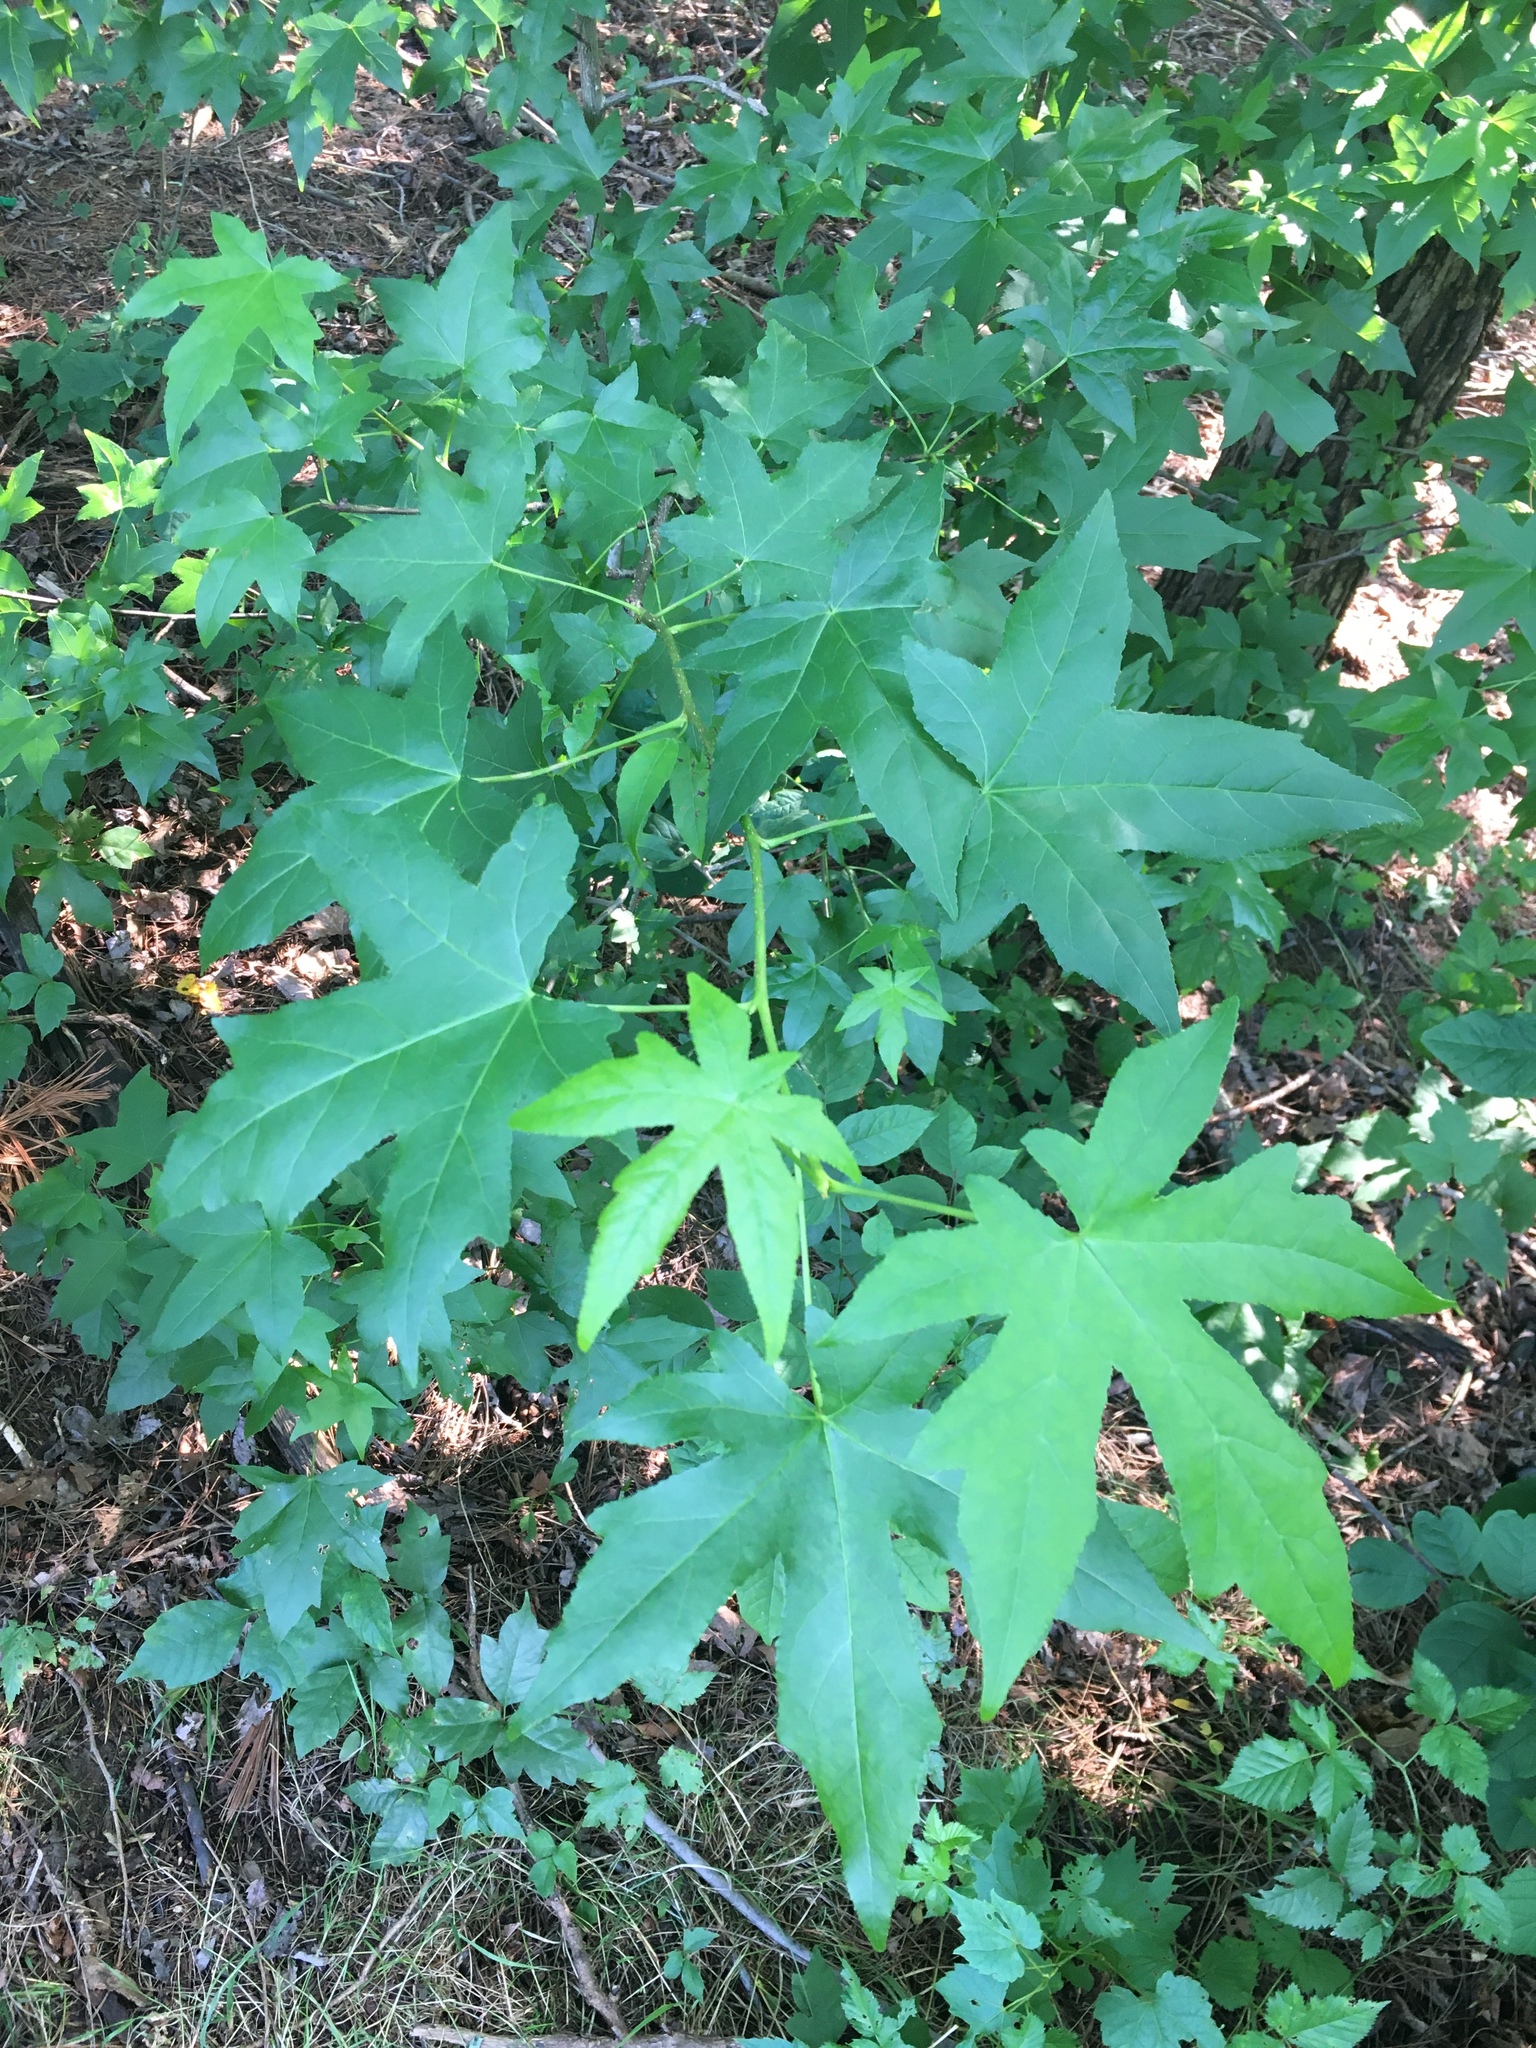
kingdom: Plantae
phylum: Tracheophyta
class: Magnoliopsida
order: Saxifragales
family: Altingiaceae
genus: Liquidambar
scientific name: Liquidambar styraciflua
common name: Sweet gum
